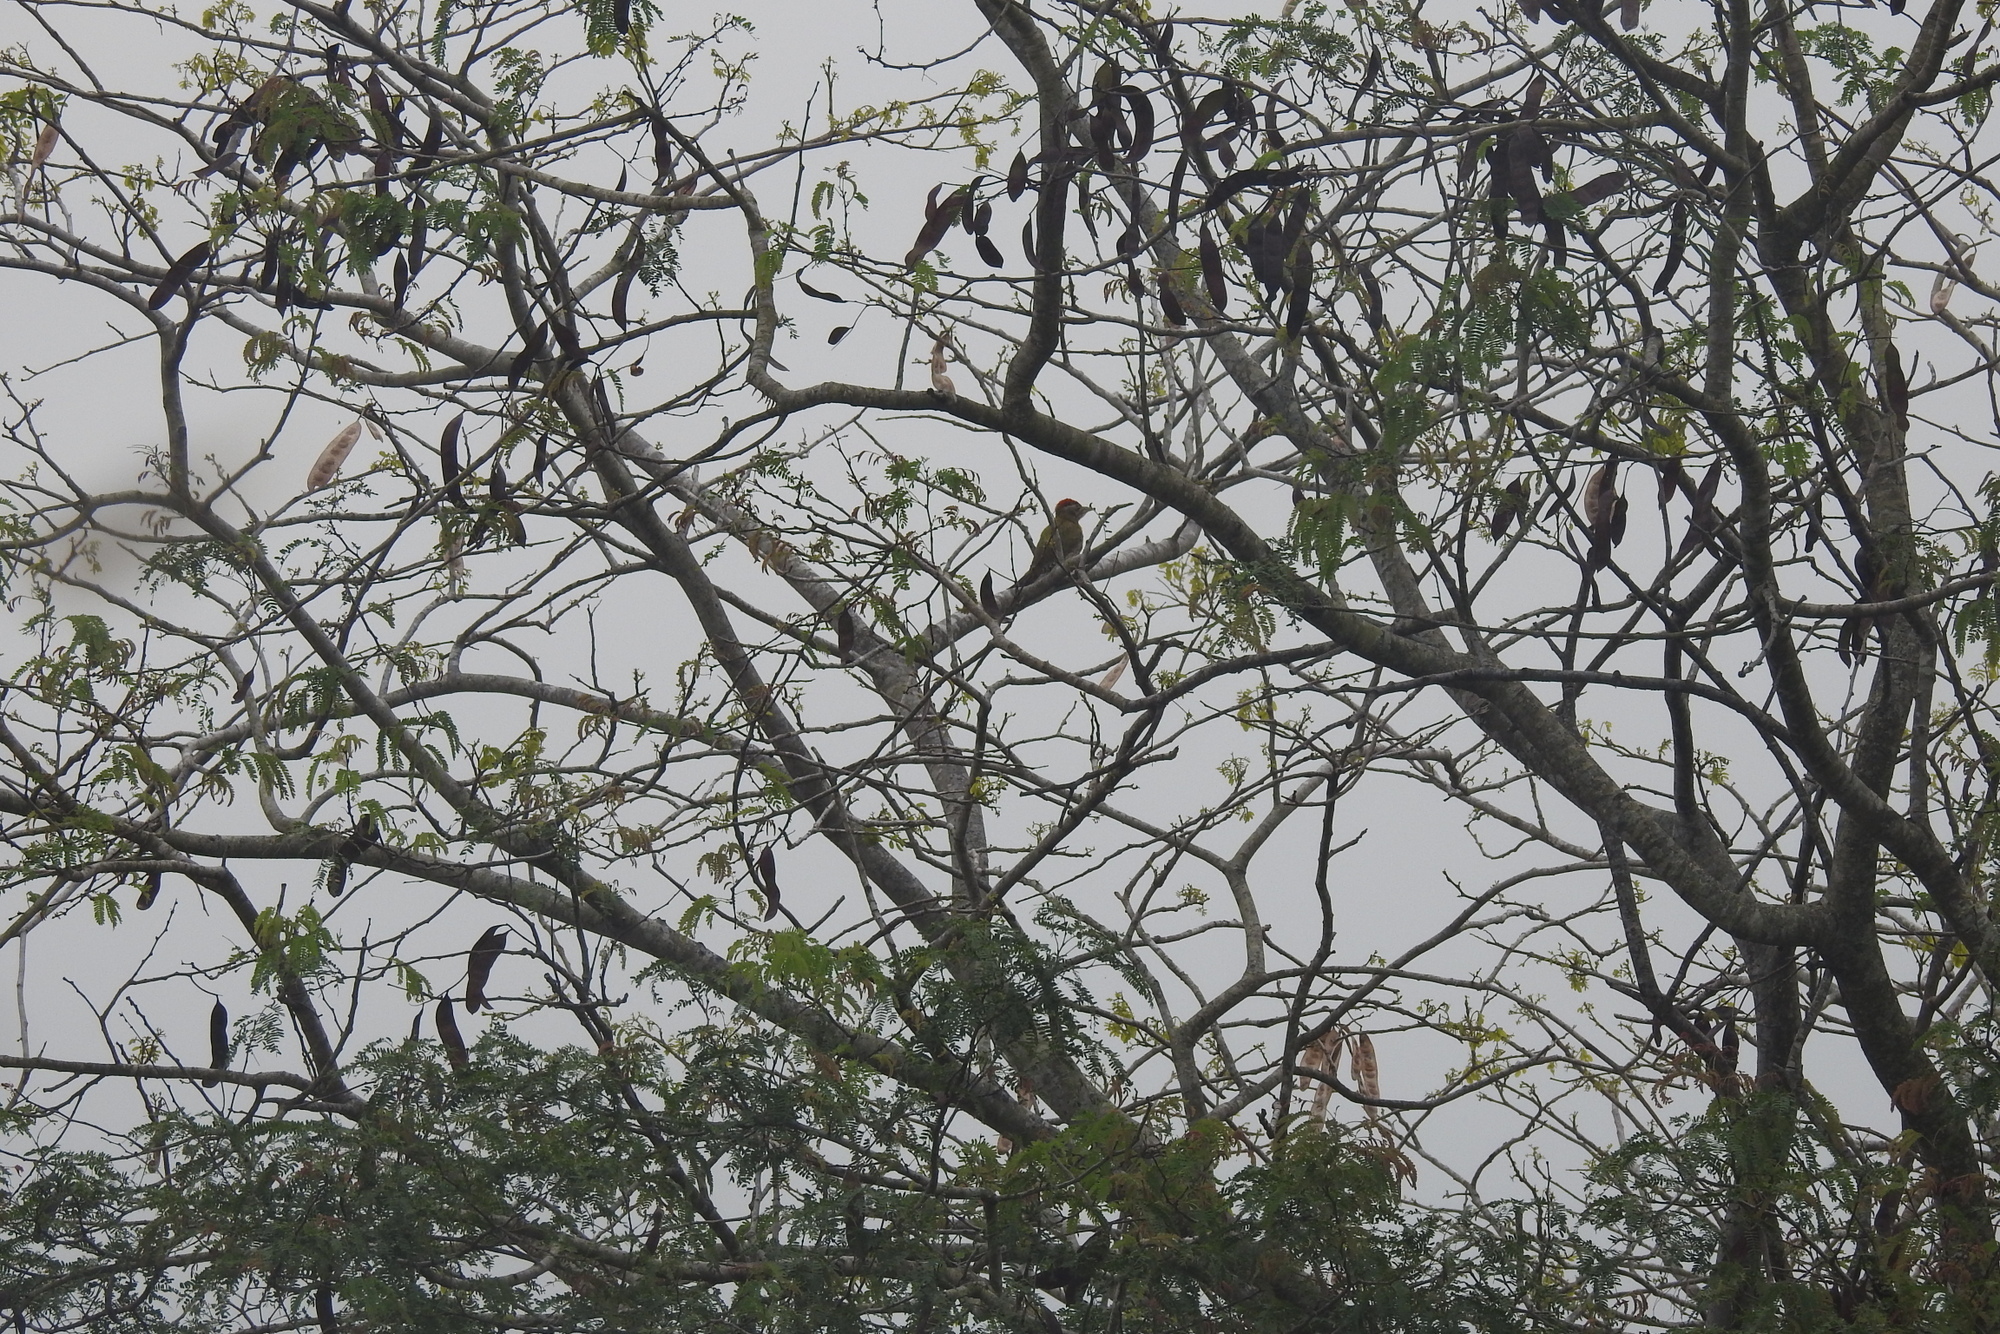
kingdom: Animalia
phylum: Chordata
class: Aves
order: Piciformes
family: Picidae
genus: Picus
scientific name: Picus xanthopygaeus
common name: Streak-throated woodpecker
